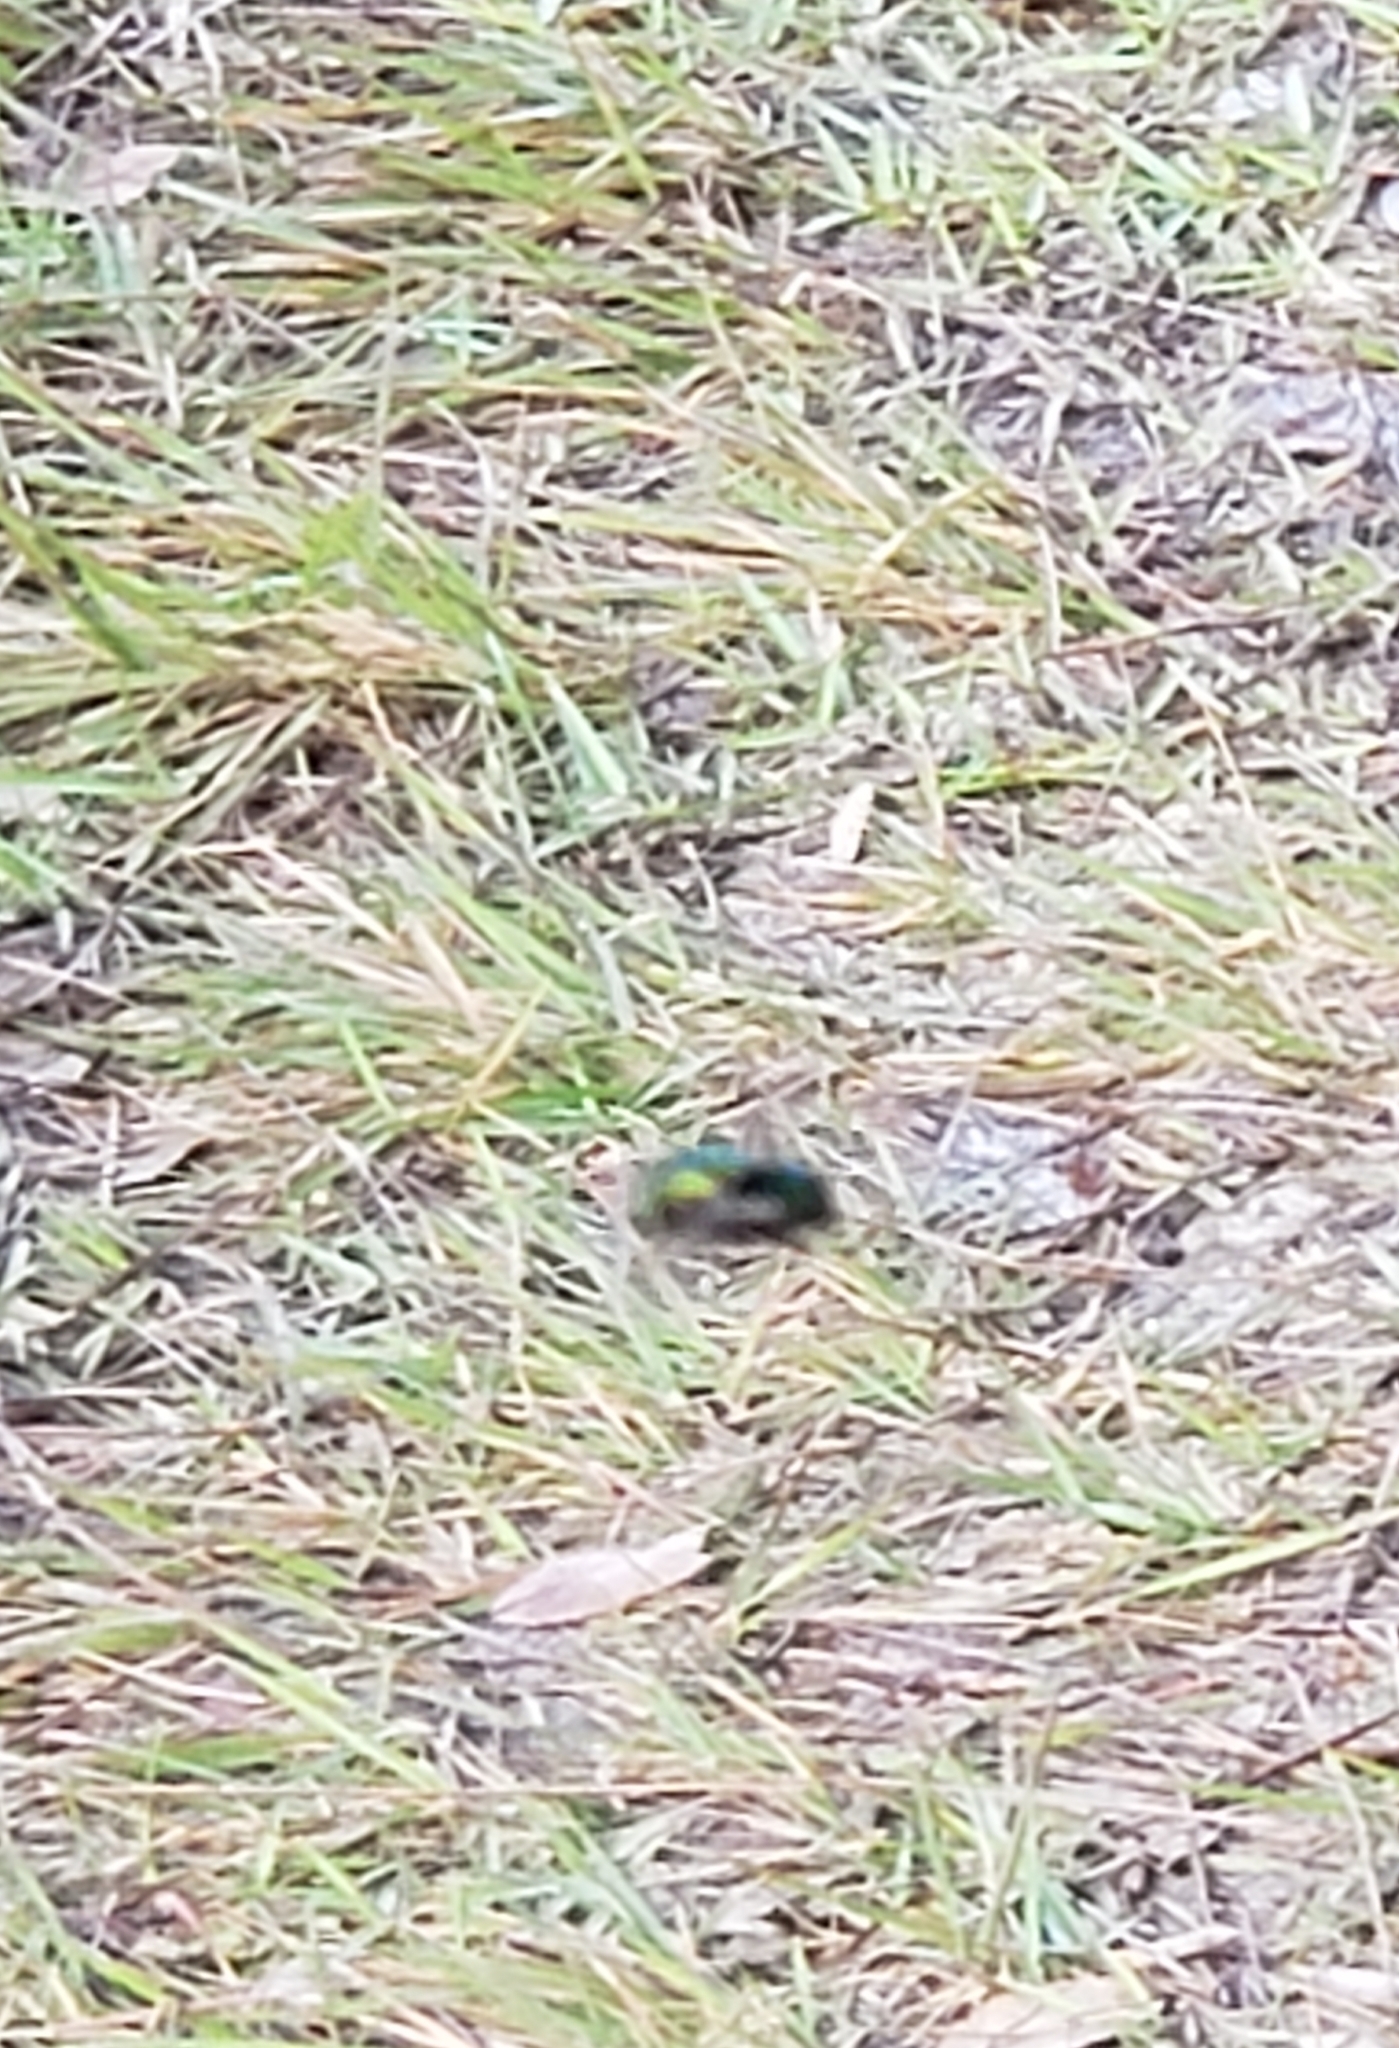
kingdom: Animalia
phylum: Arthropoda
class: Insecta
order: Diptera
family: Syrphidae
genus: Ornidia
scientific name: Ornidia obesa
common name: Syrphid fly
